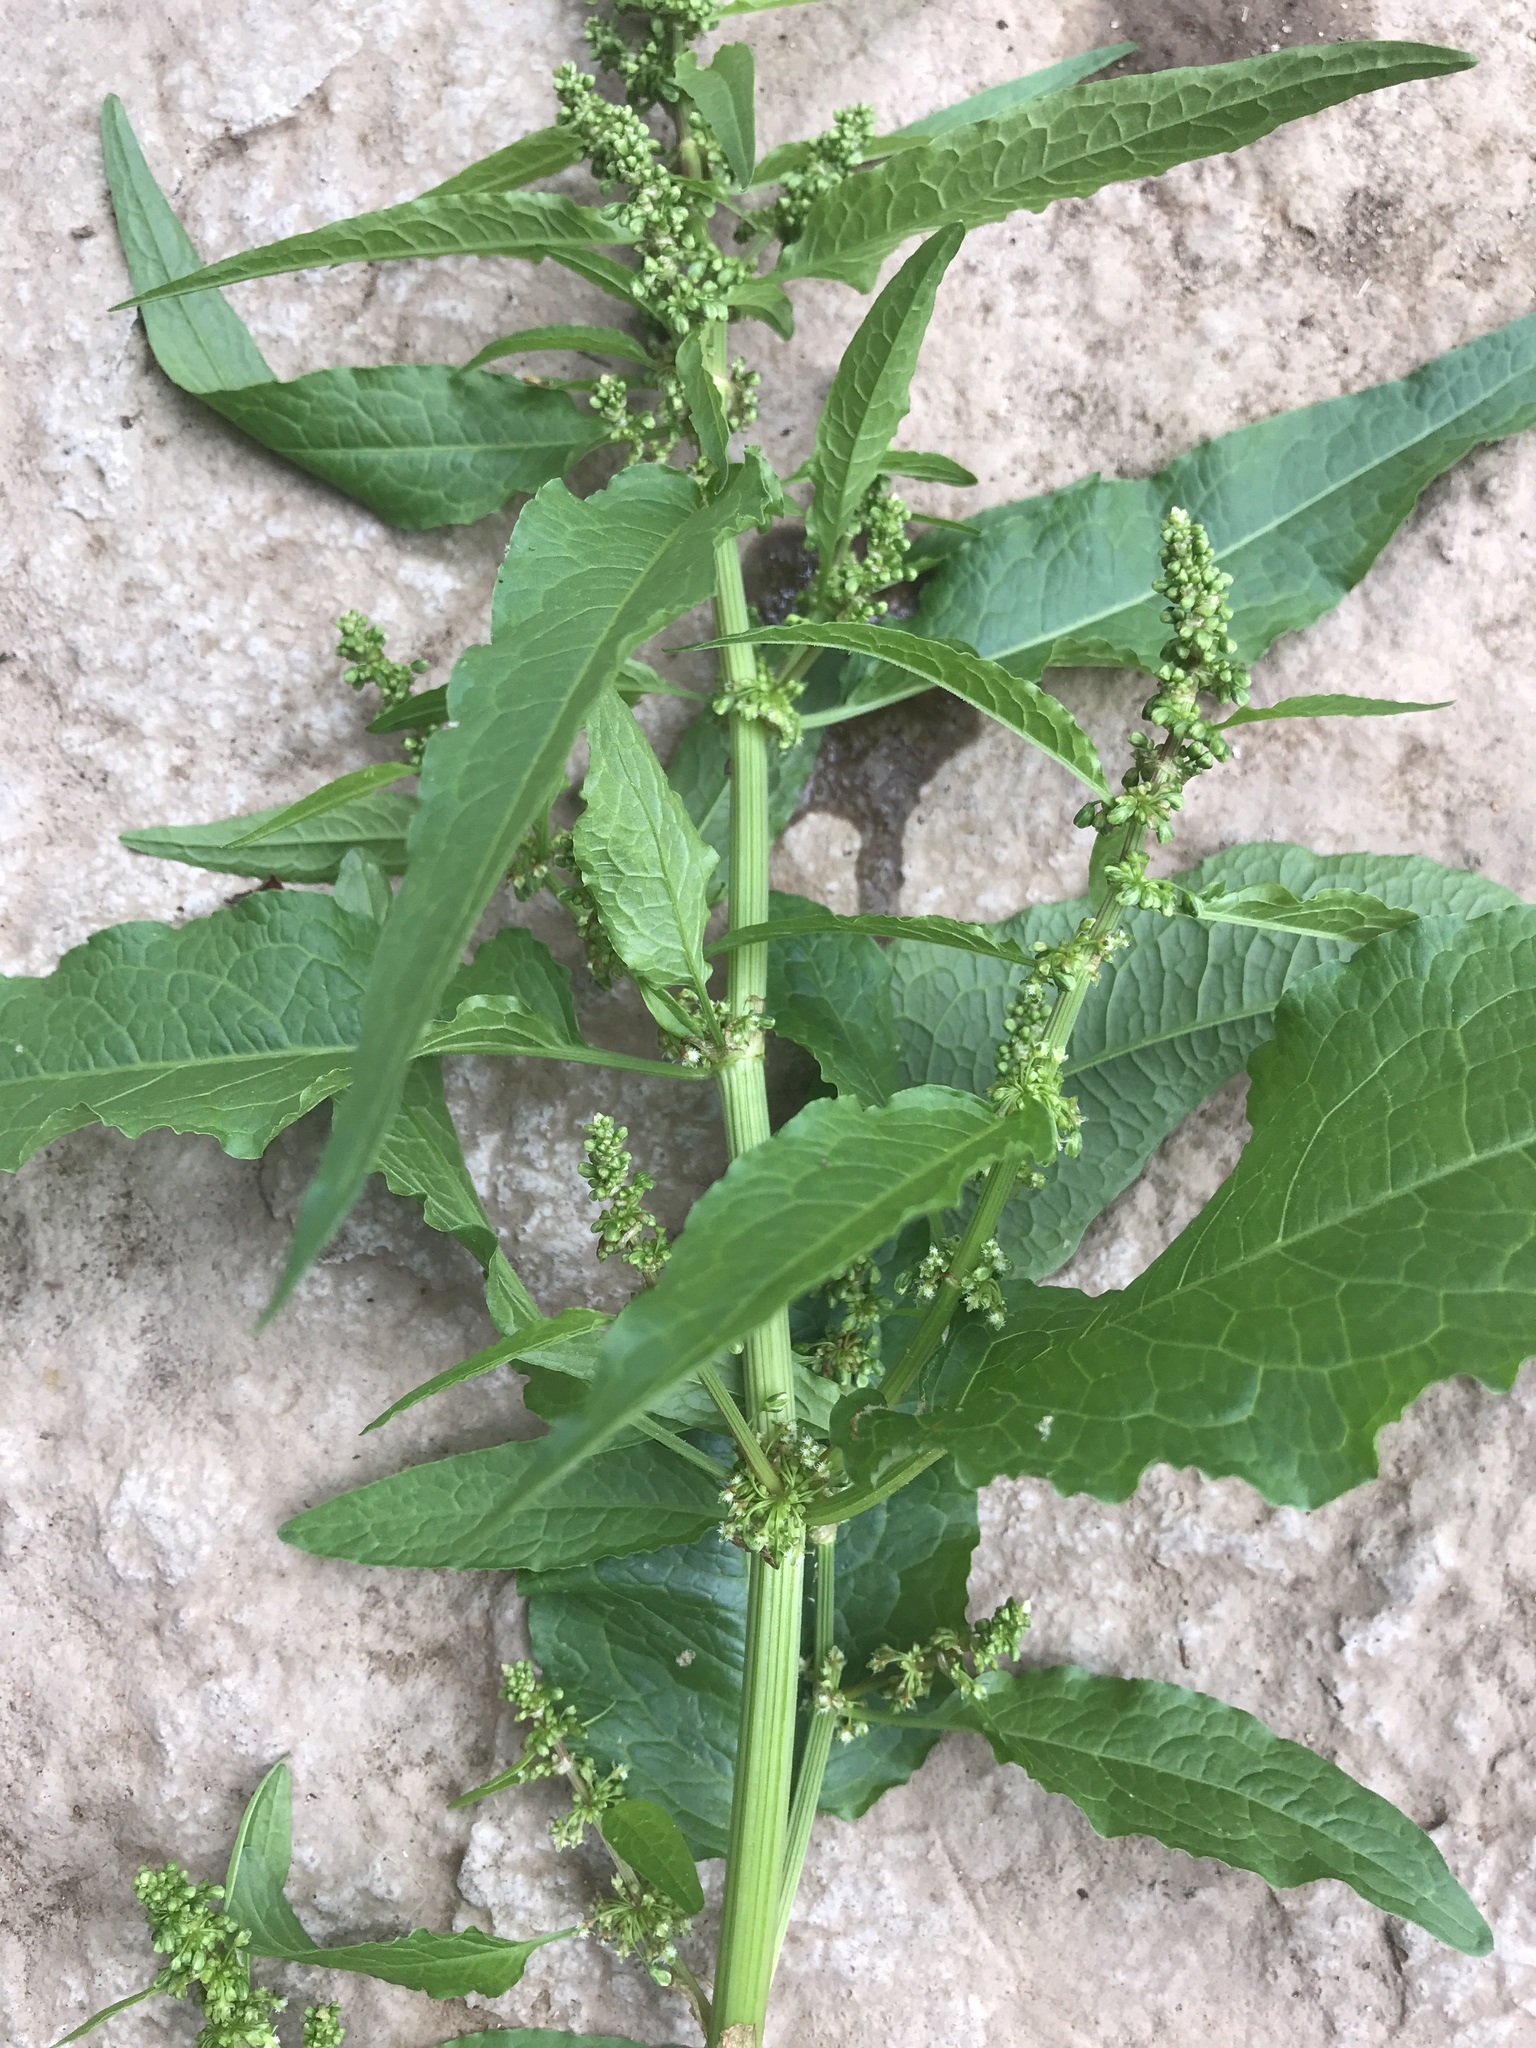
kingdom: Plantae
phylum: Tracheophyta
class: Magnoliopsida
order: Caryophyllales
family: Polygonaceae
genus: Rumex
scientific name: Rumex crispus
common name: Curled dock
